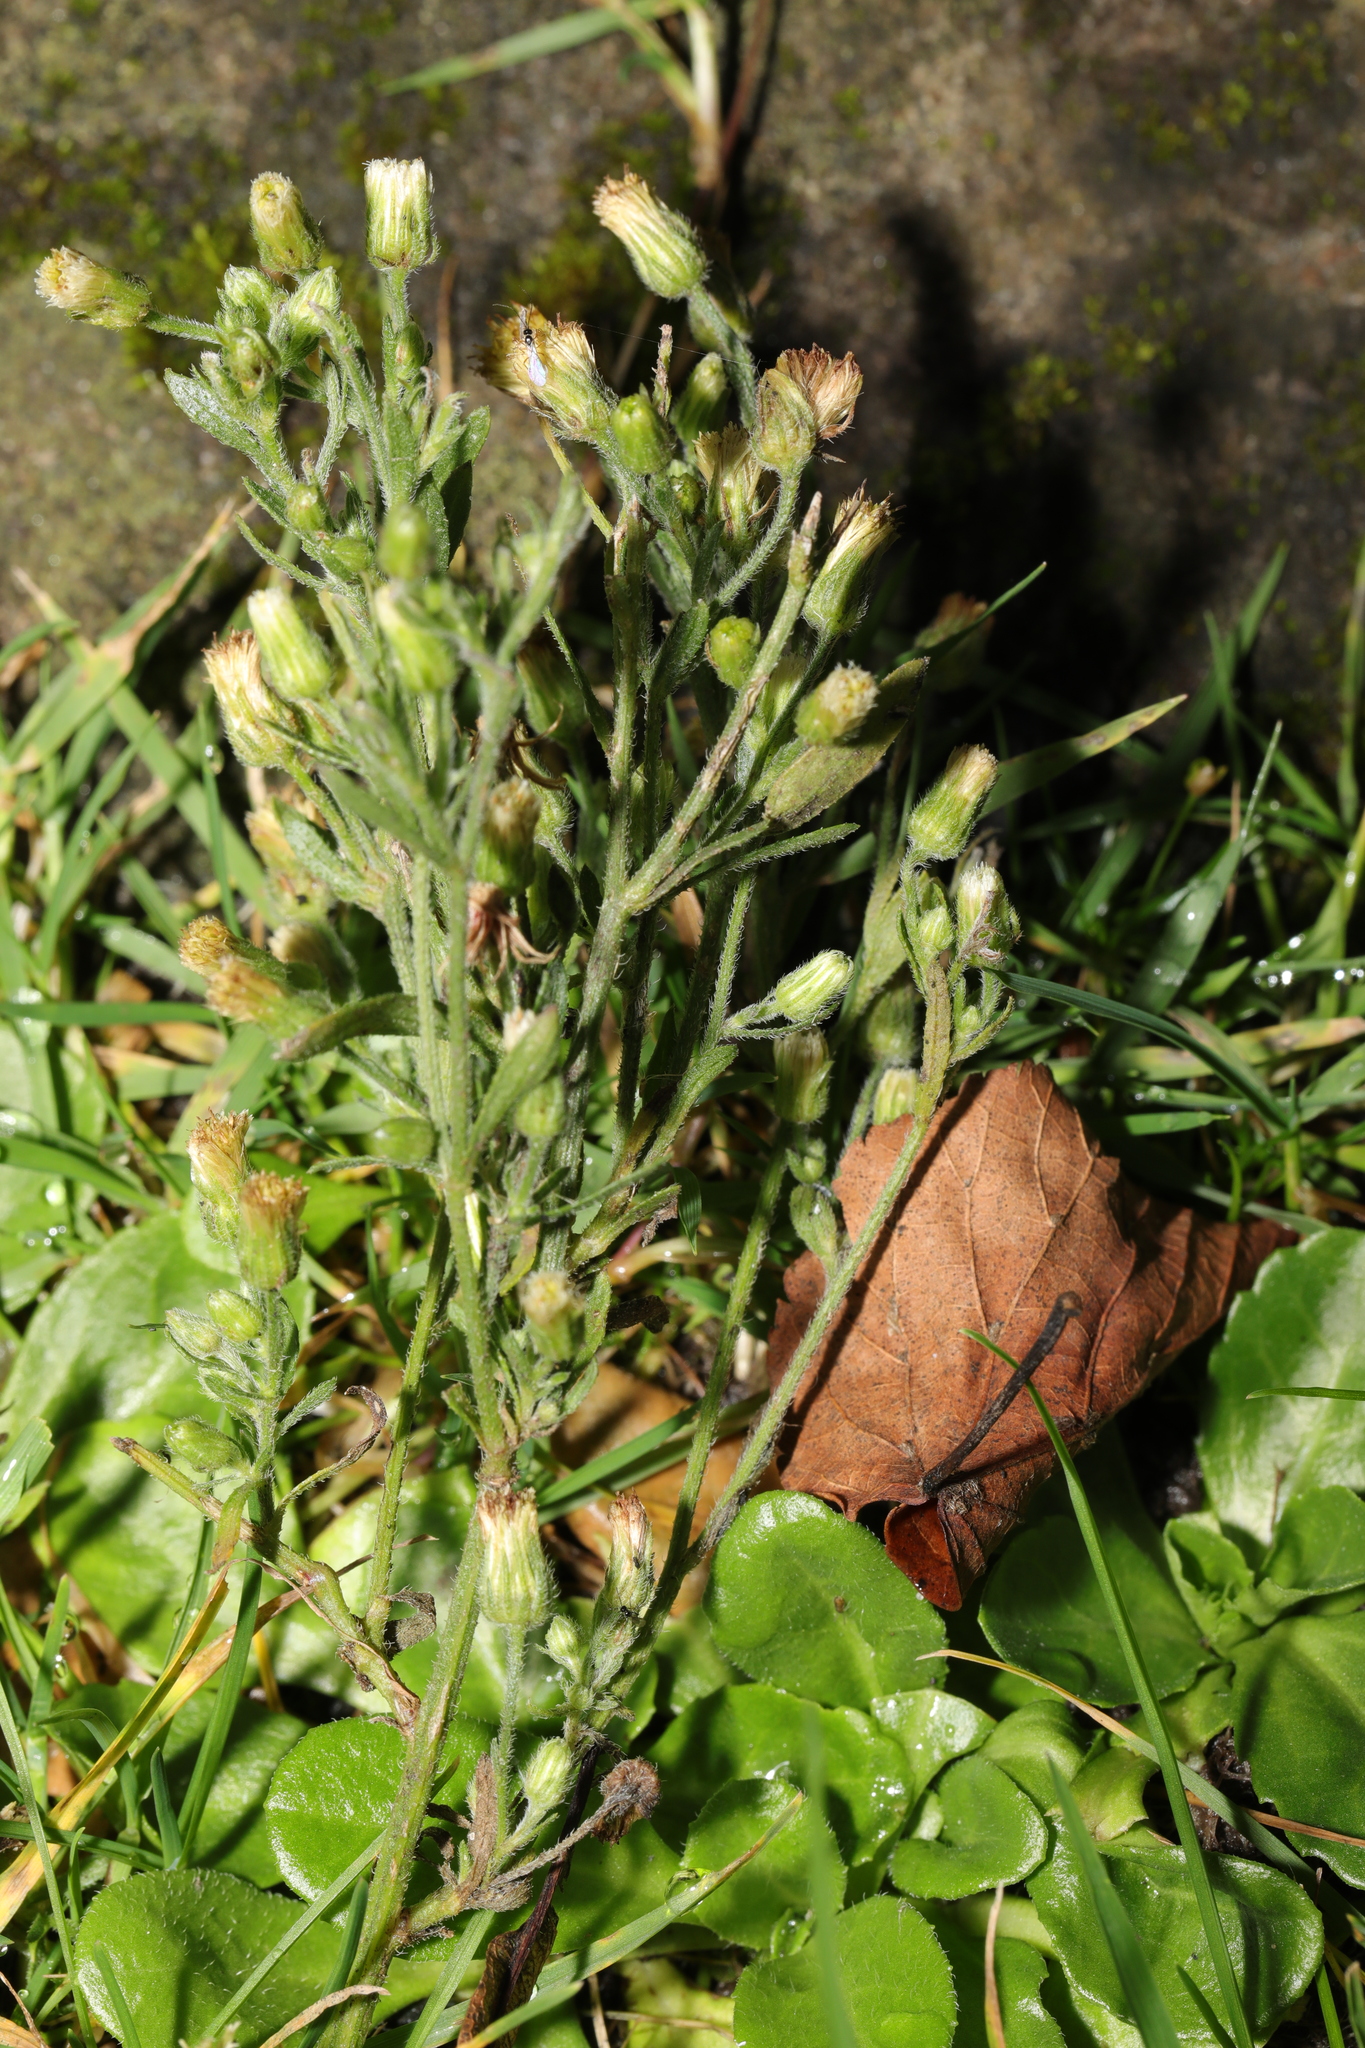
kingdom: Plantae
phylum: Tracheophyta
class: Magnoliopsida
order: Asterales
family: Asteraceae
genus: Erigeron
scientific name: Erigeron sumatrensis
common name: Daisy
